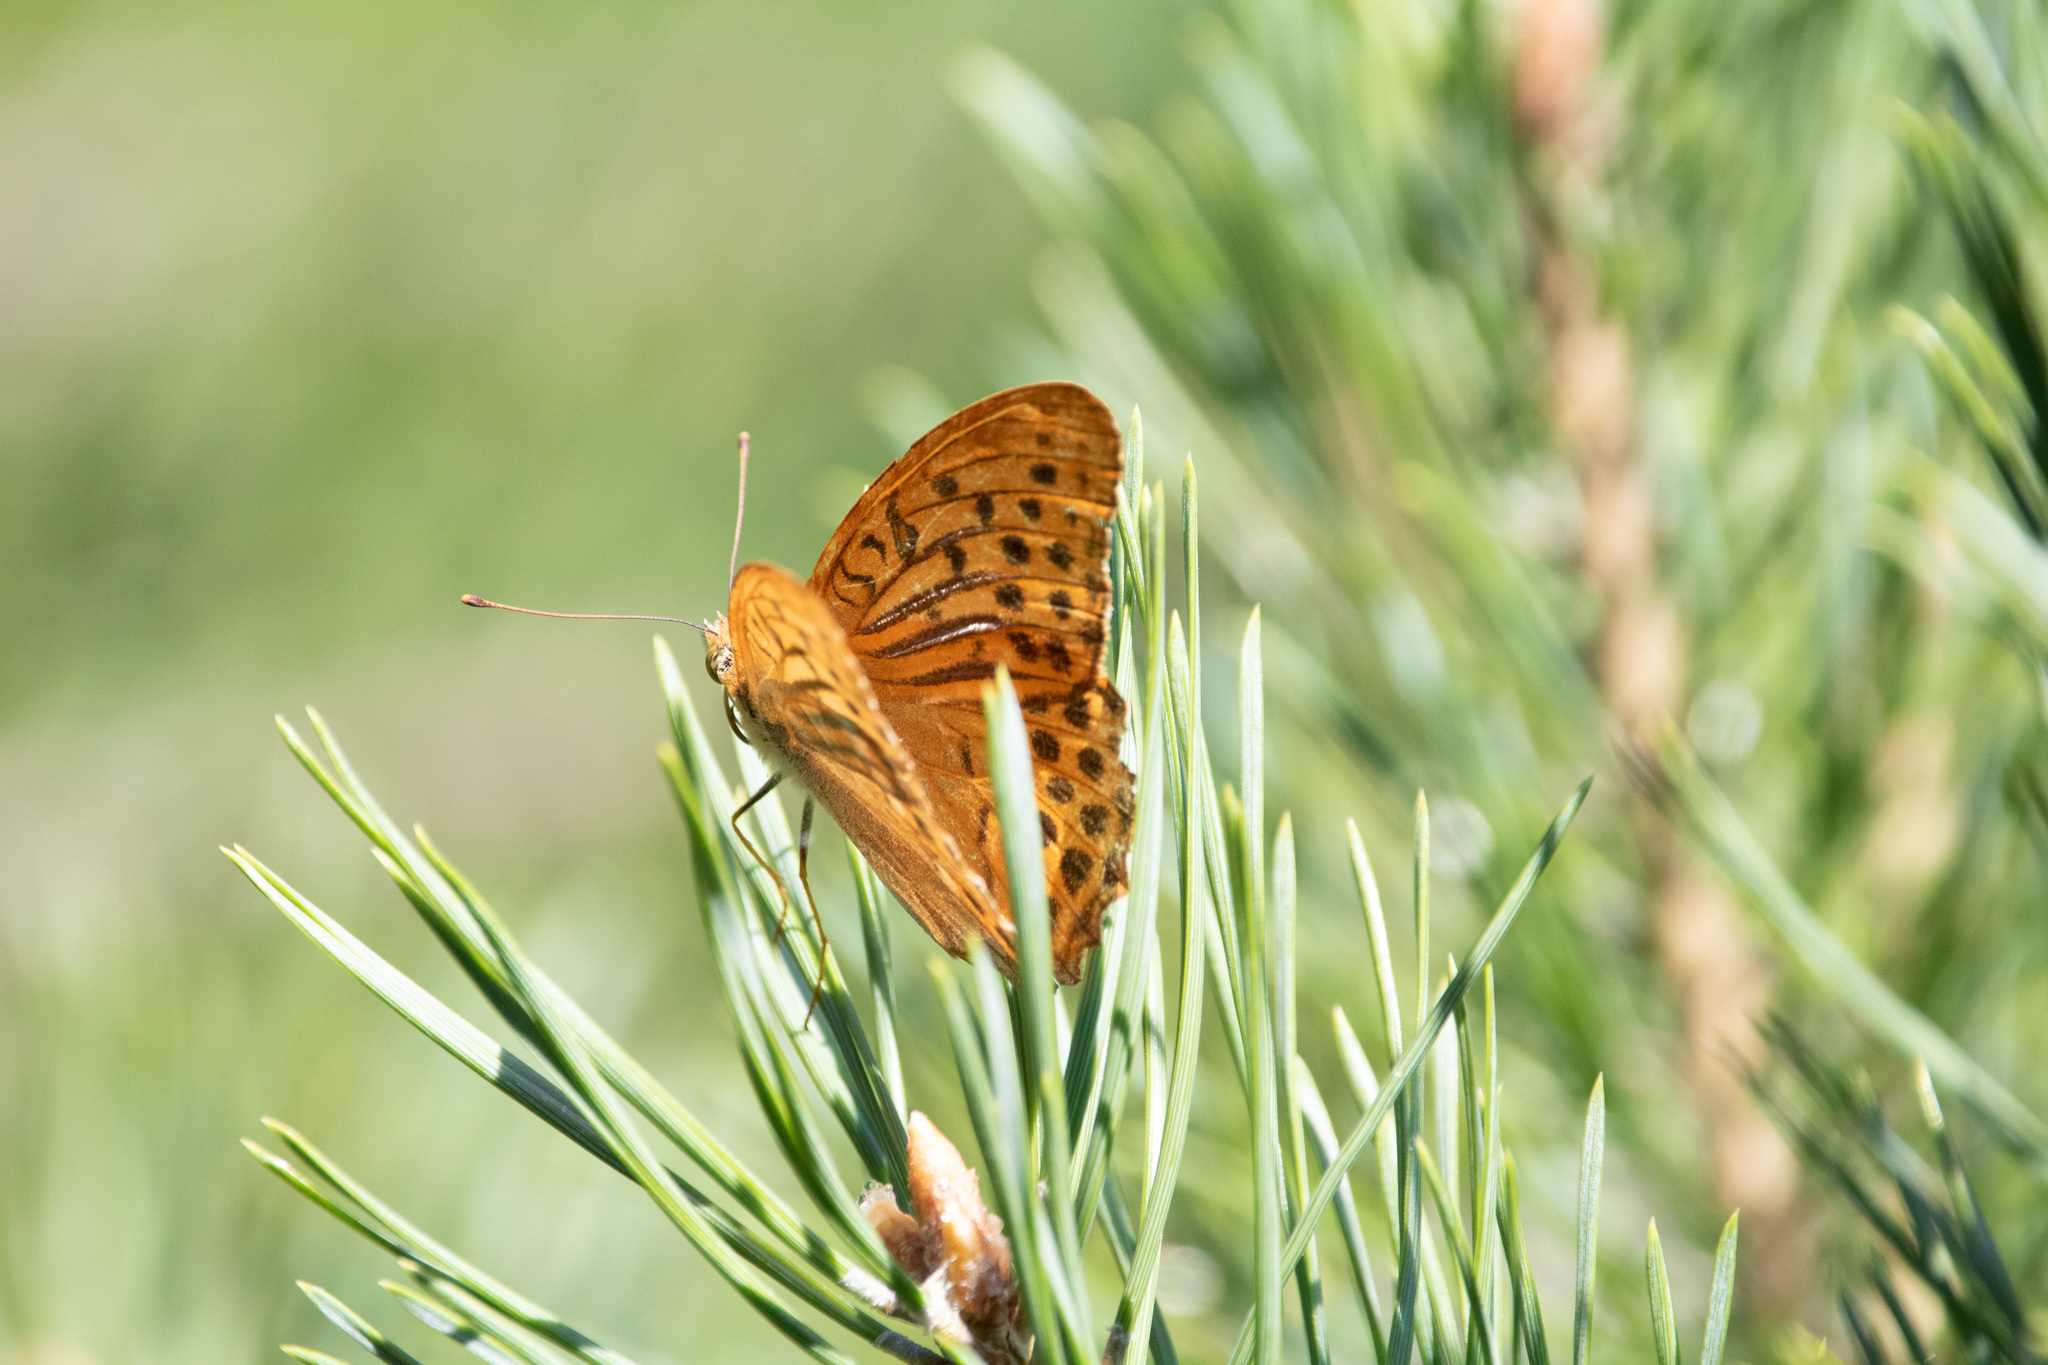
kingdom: Animalia
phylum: Arthropoda
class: Insecta
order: Lepidoptera
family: Nymphalidae
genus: Argynnis
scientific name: Argynnis paphia
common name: Silver-washed fritillary
